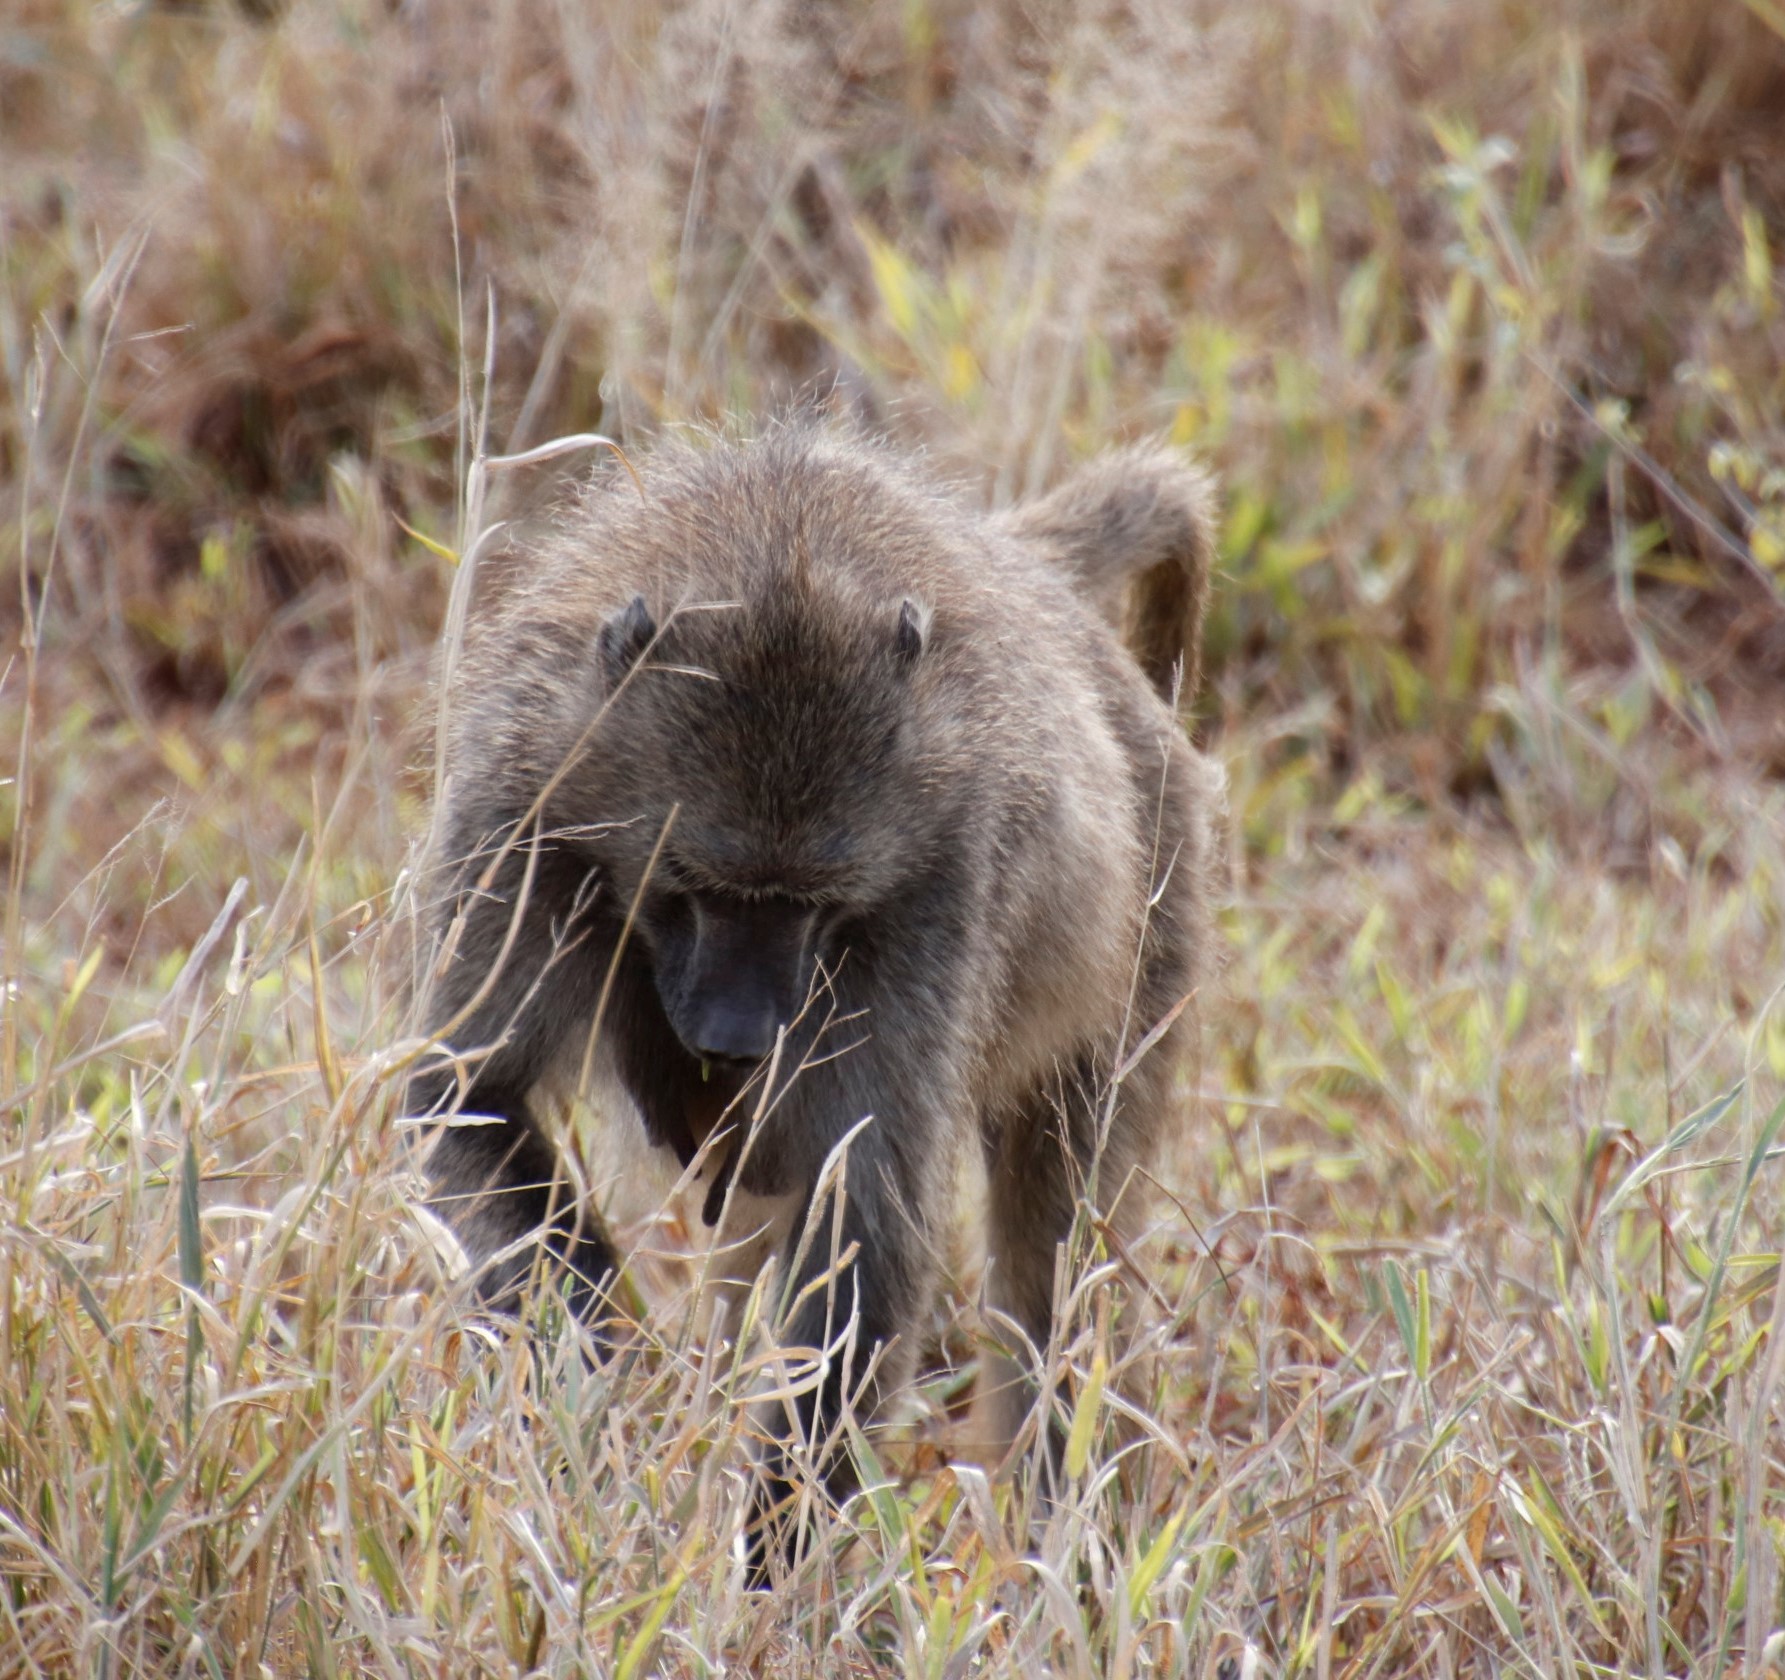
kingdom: Animalia
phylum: Chordata
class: Mammalia
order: Primates
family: Cercopithecidae
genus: Papio
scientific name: Papio ursinus
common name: Chacma baboon
